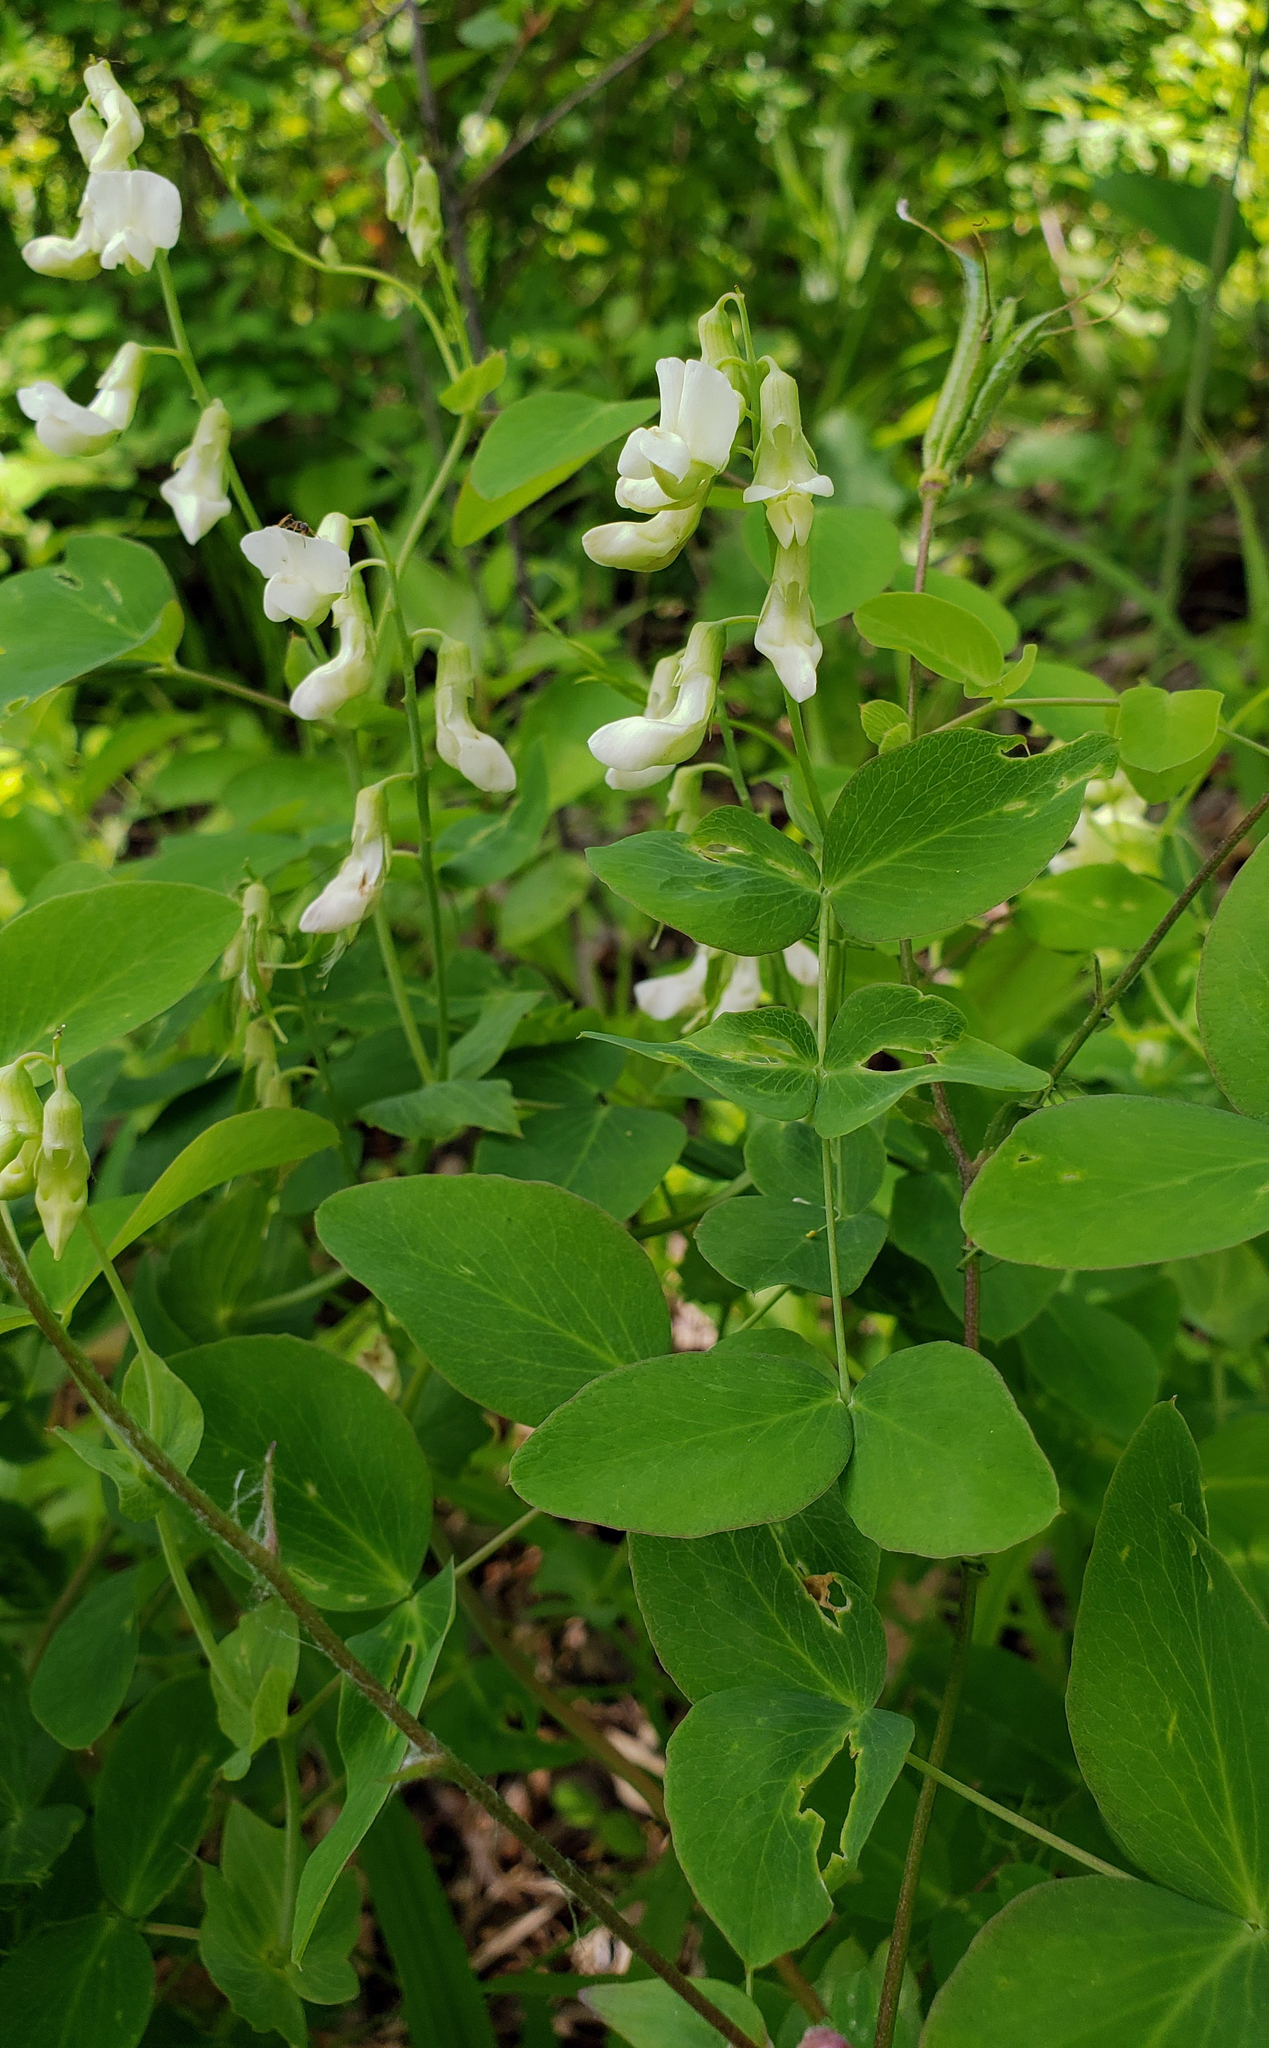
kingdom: Plantae
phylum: Tracheophyta
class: Magnoliopsida
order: Fabales
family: Fabaceae
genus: Lathyrus
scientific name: Lathyrus ochroleucus
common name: Pale vetchling
